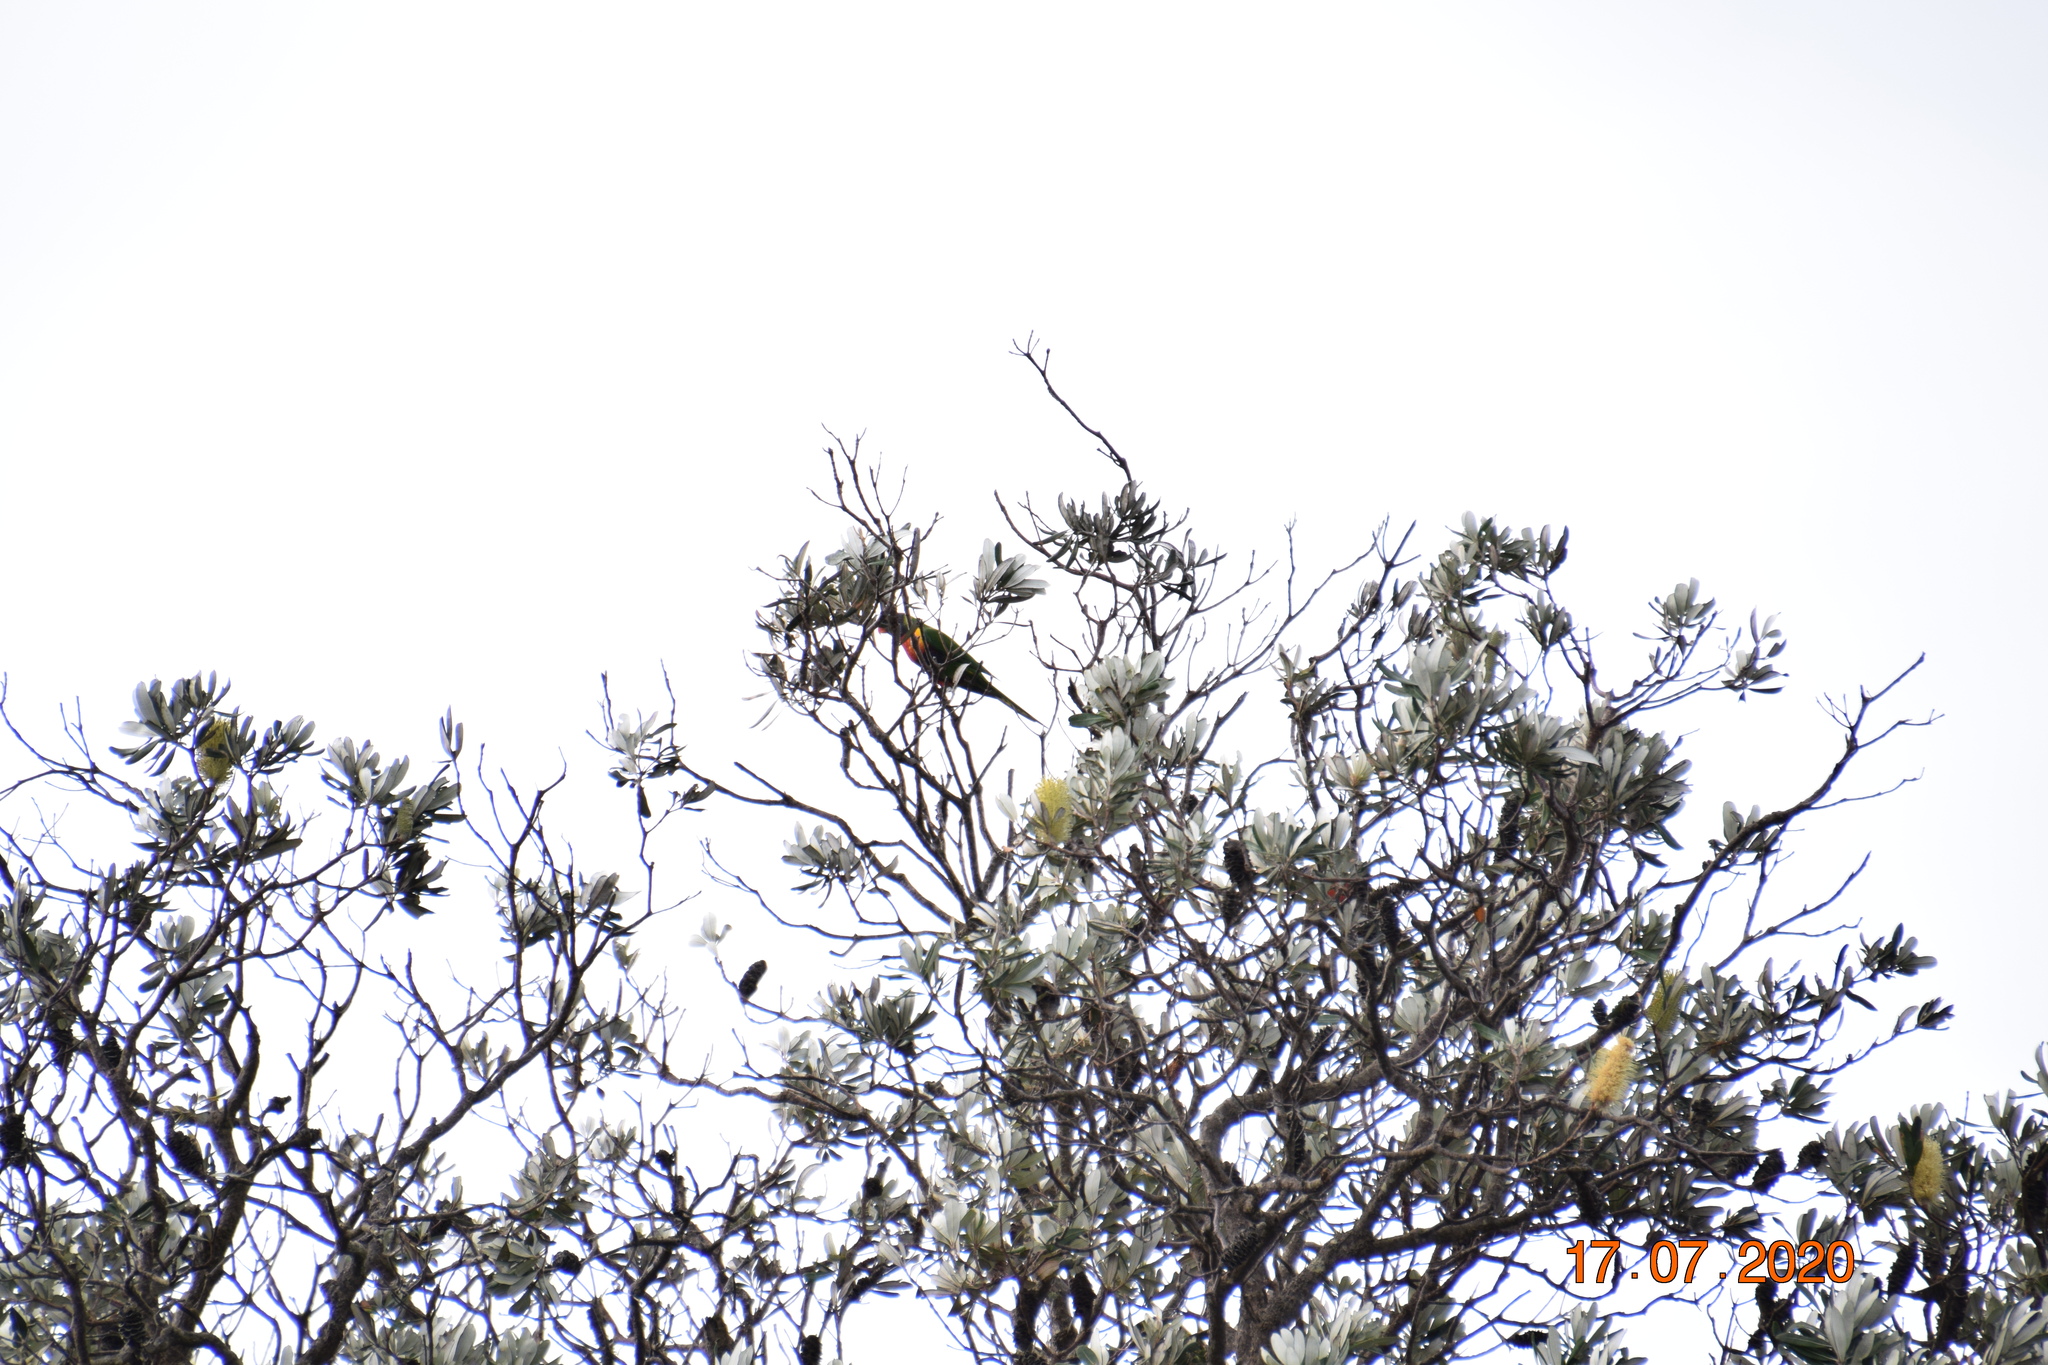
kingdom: Animalia
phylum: Chordata
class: Aves
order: Psittaciformes
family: Psittacidae
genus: Trichoglossus
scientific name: Trichoglossus haematodus
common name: Coconut lorikeet
